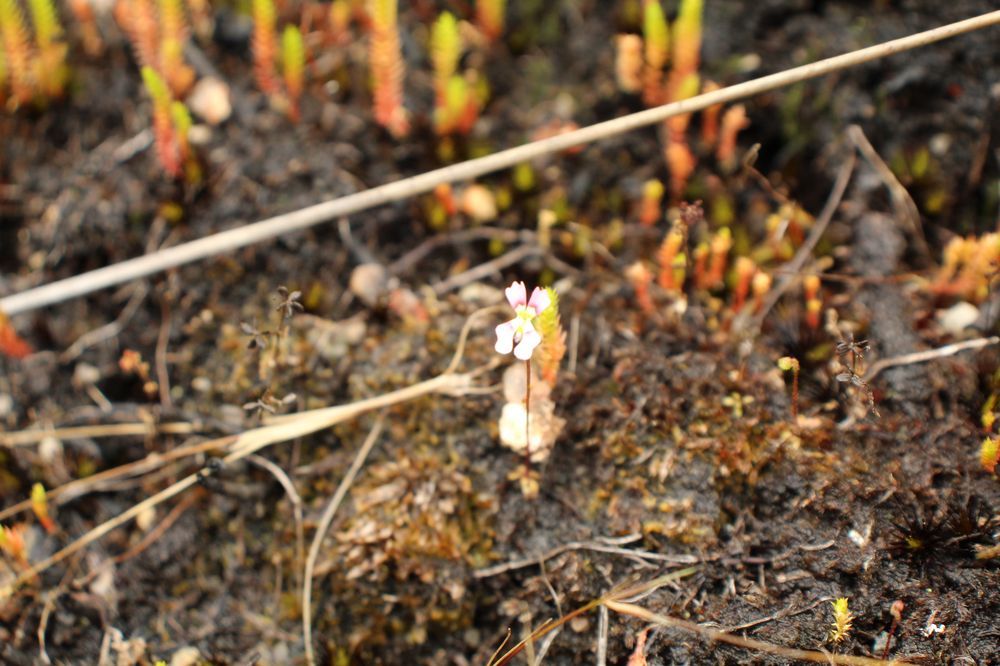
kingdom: Plantae
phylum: Tracheophyta
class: Magnoliopsida
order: Asterales
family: Stylidiaceae
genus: Stylidium
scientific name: Stylidium androsaceum
